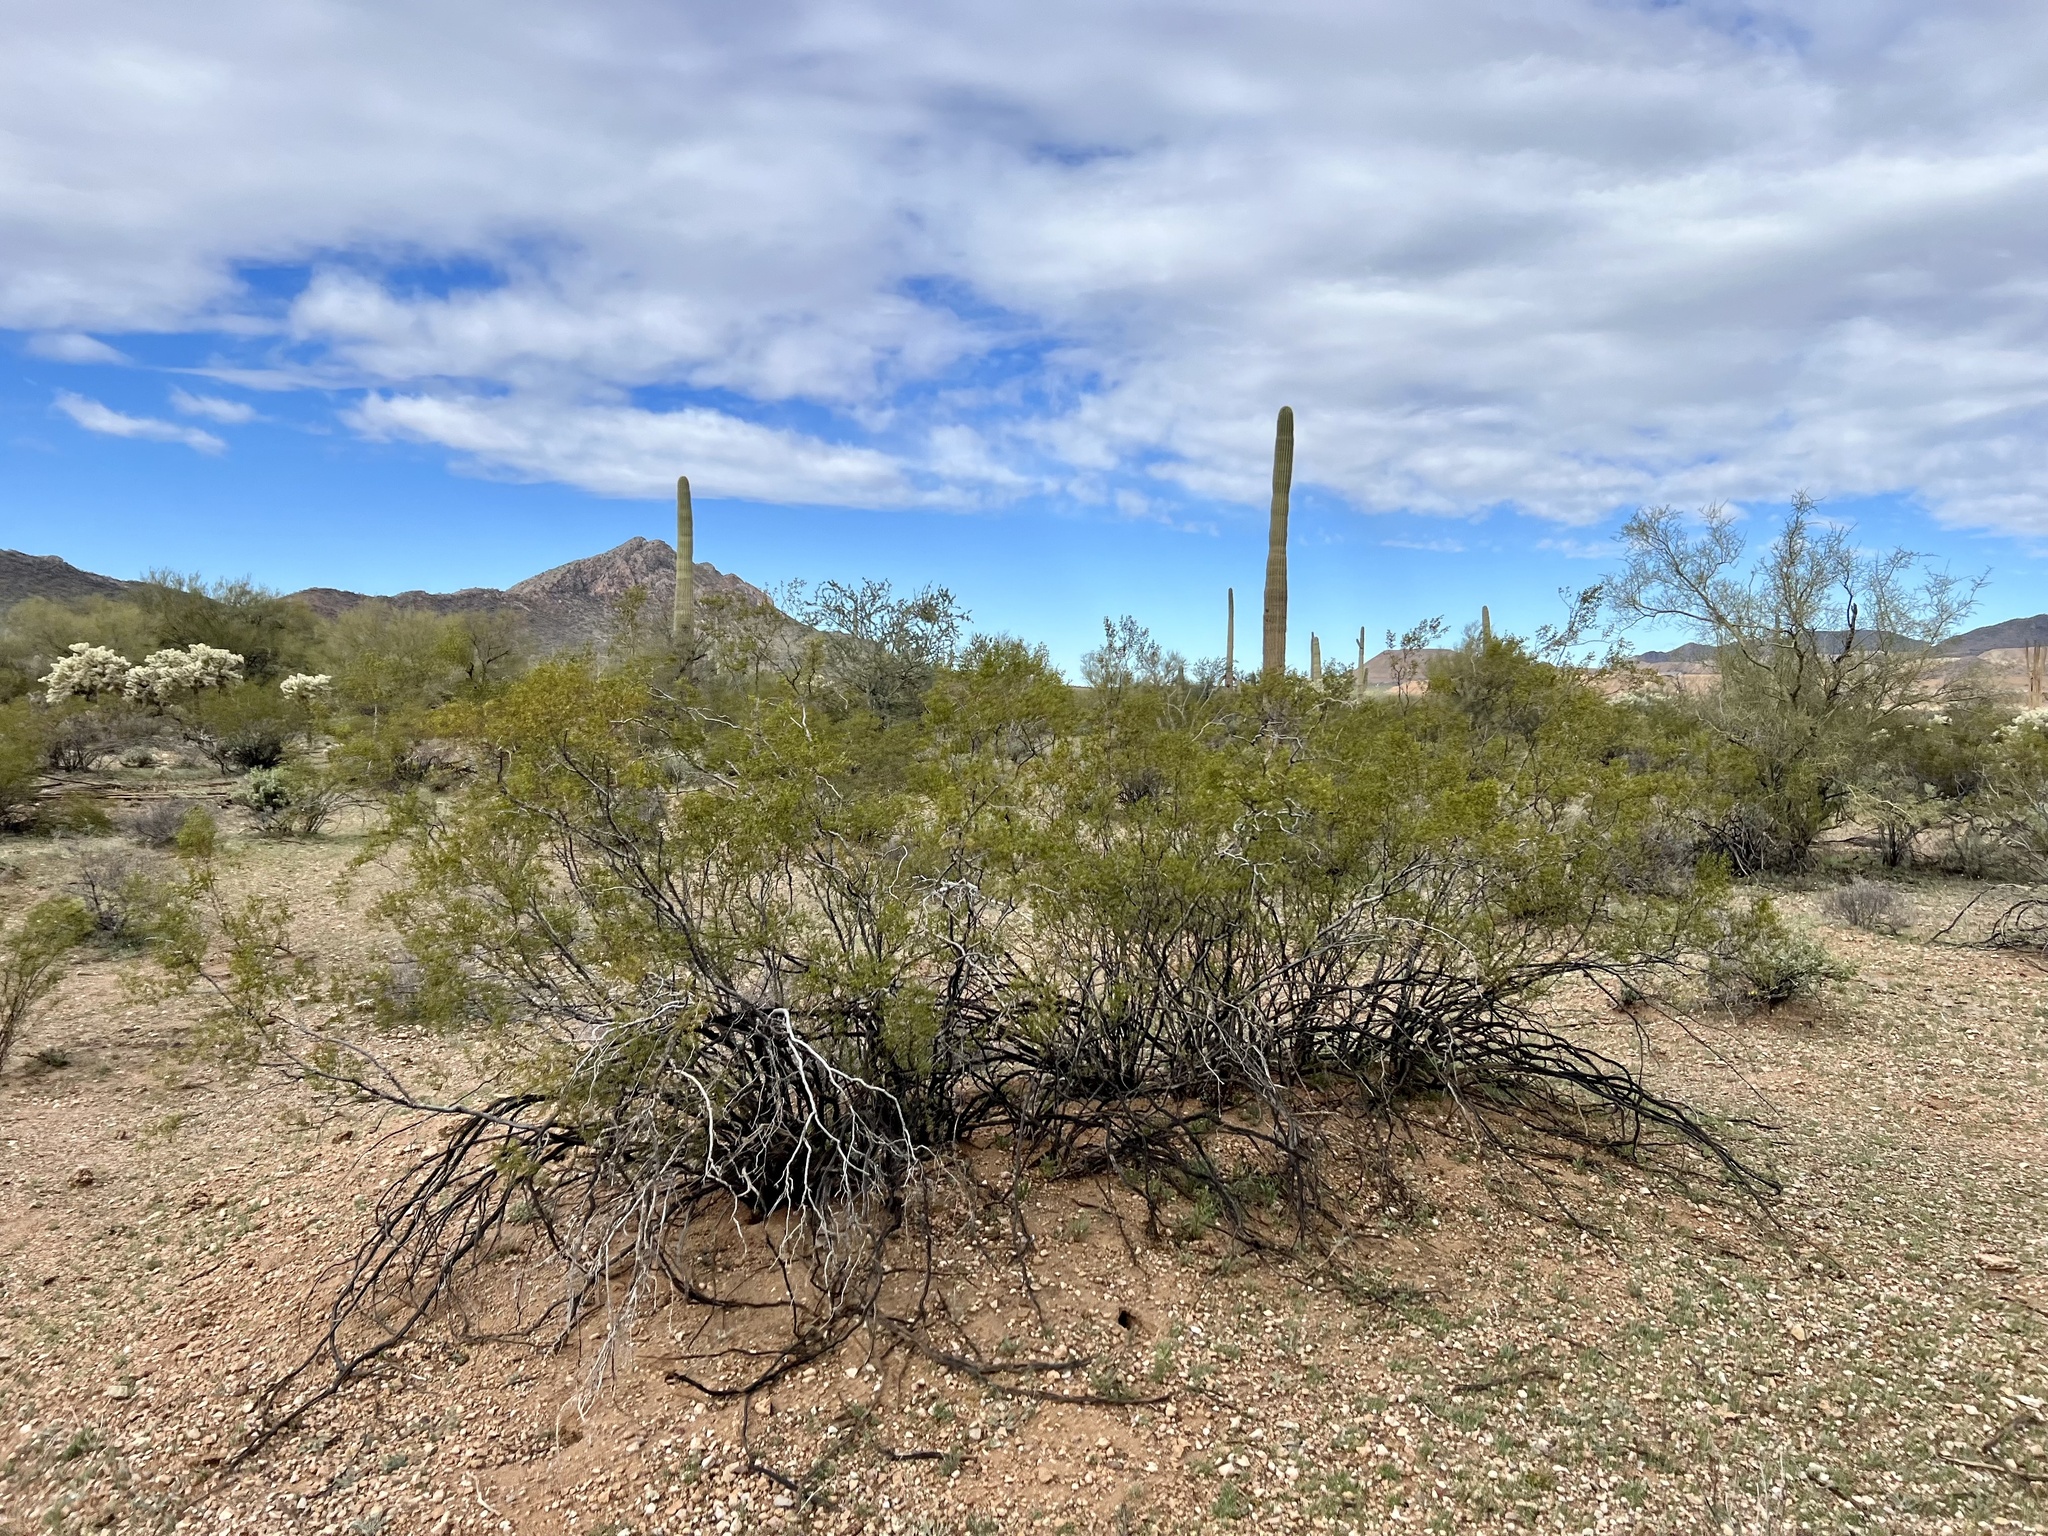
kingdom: Plantae
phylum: Tracheophyta
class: Magnoliopsida
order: Zygophyllales
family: Zygophyllaceae
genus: Larrea
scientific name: Larrea tridentata
